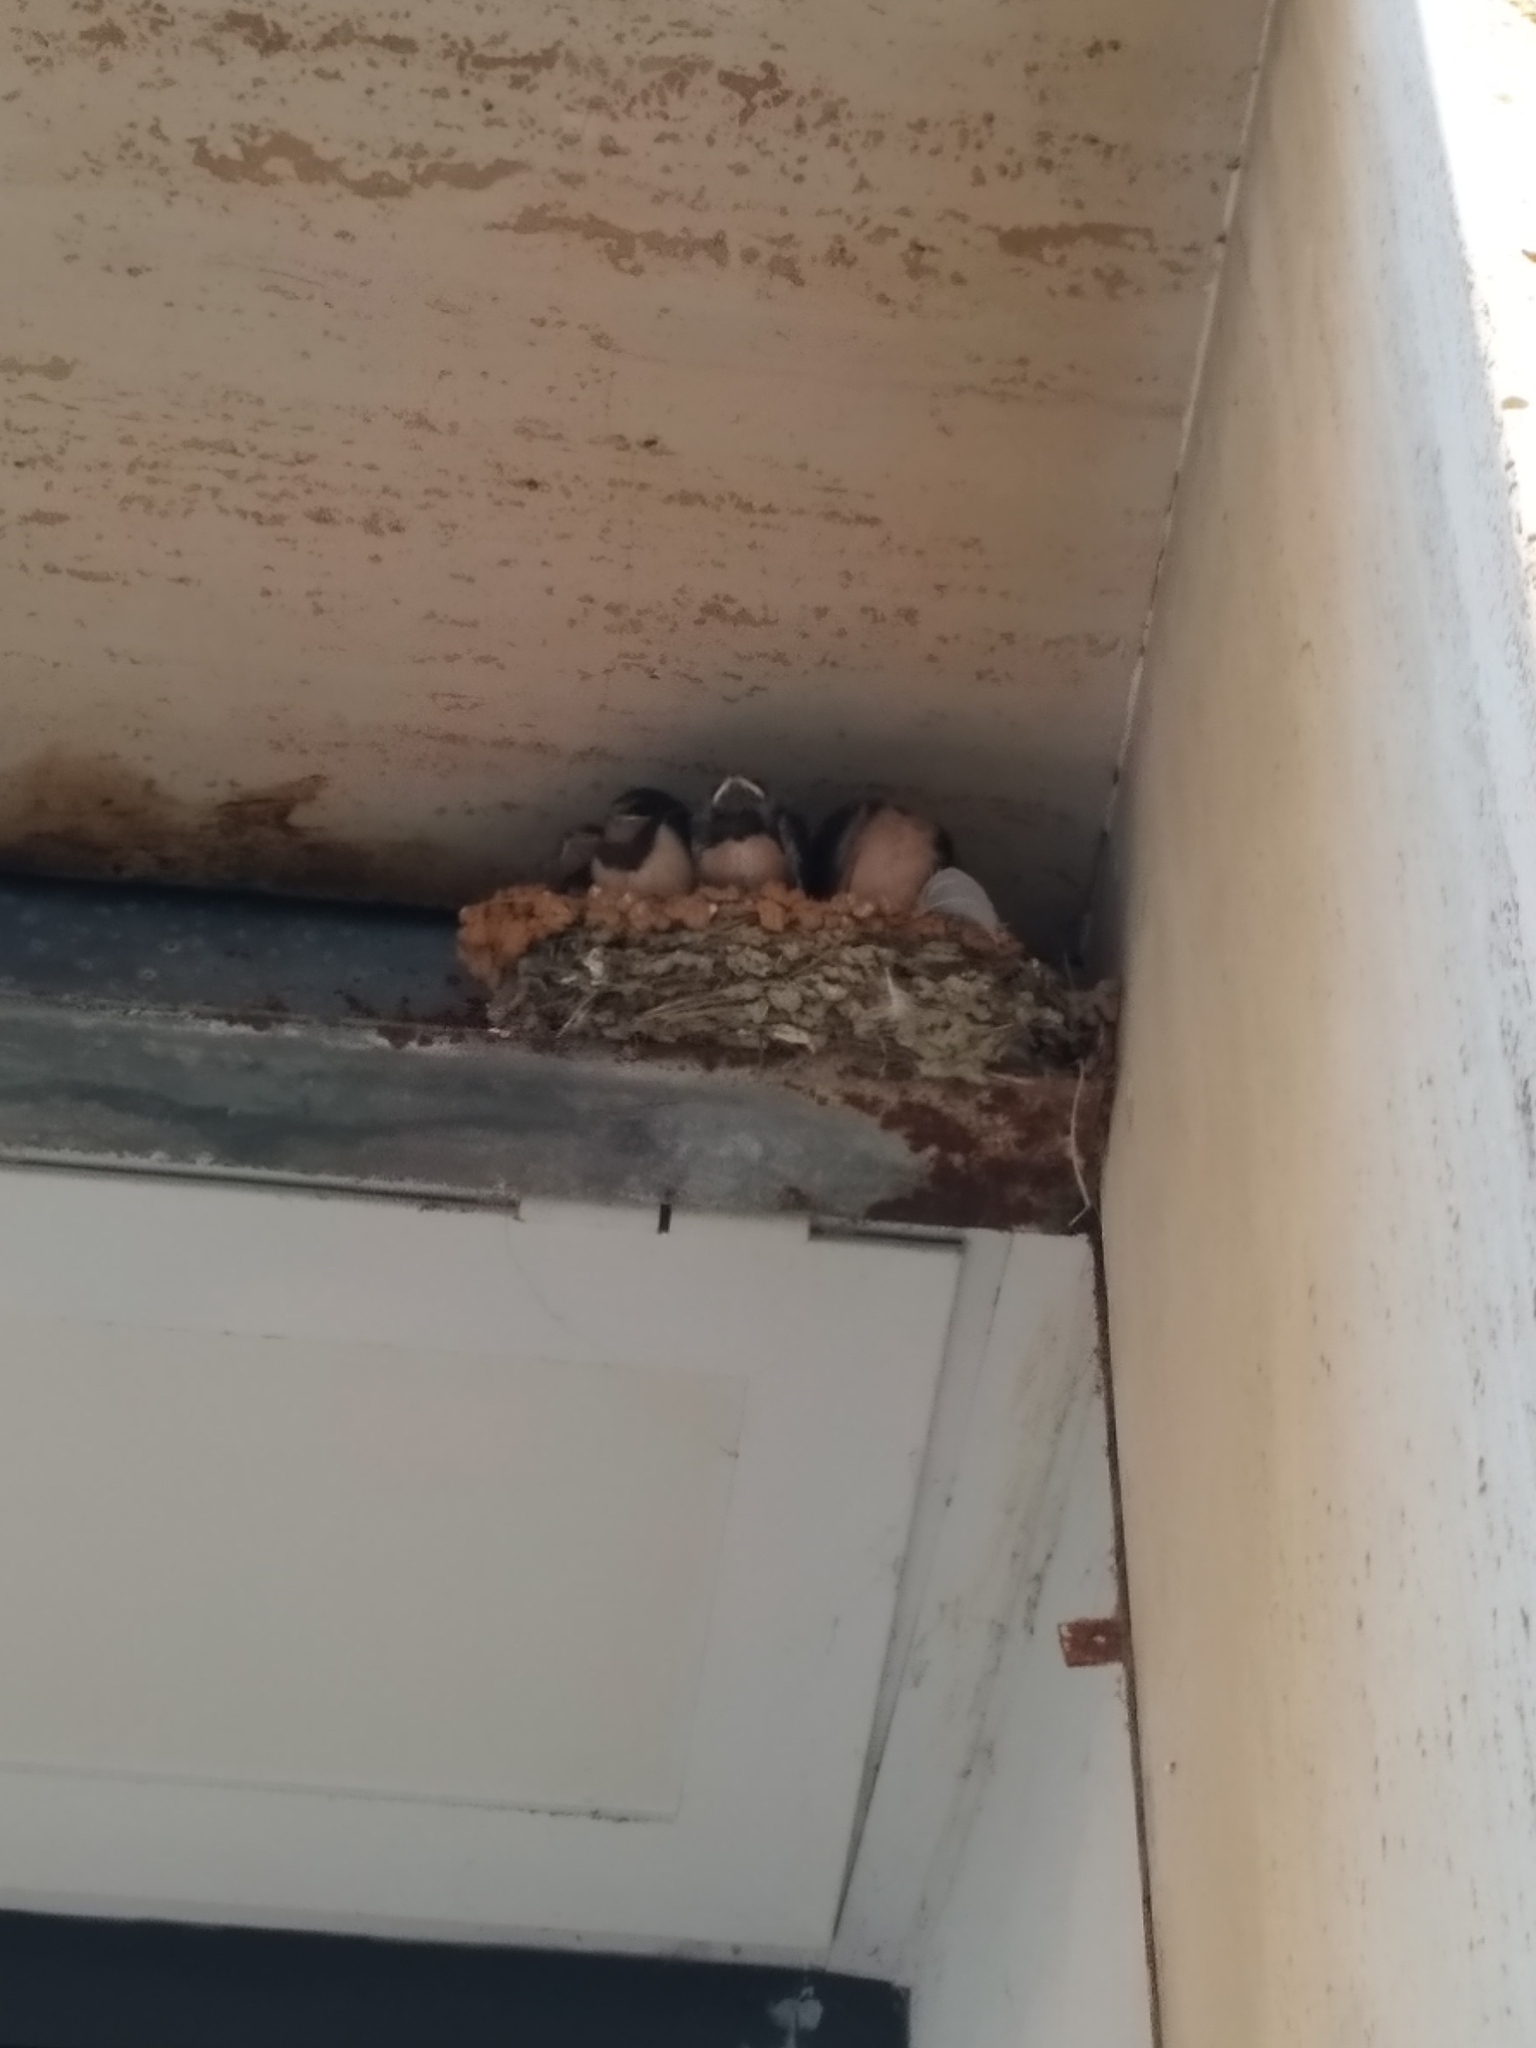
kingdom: Animalia
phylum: Chordata
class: Aves
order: Passeriformes
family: Hirundinidae
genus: Hirundo
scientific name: Hirundo rustica
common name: Barn swallow
